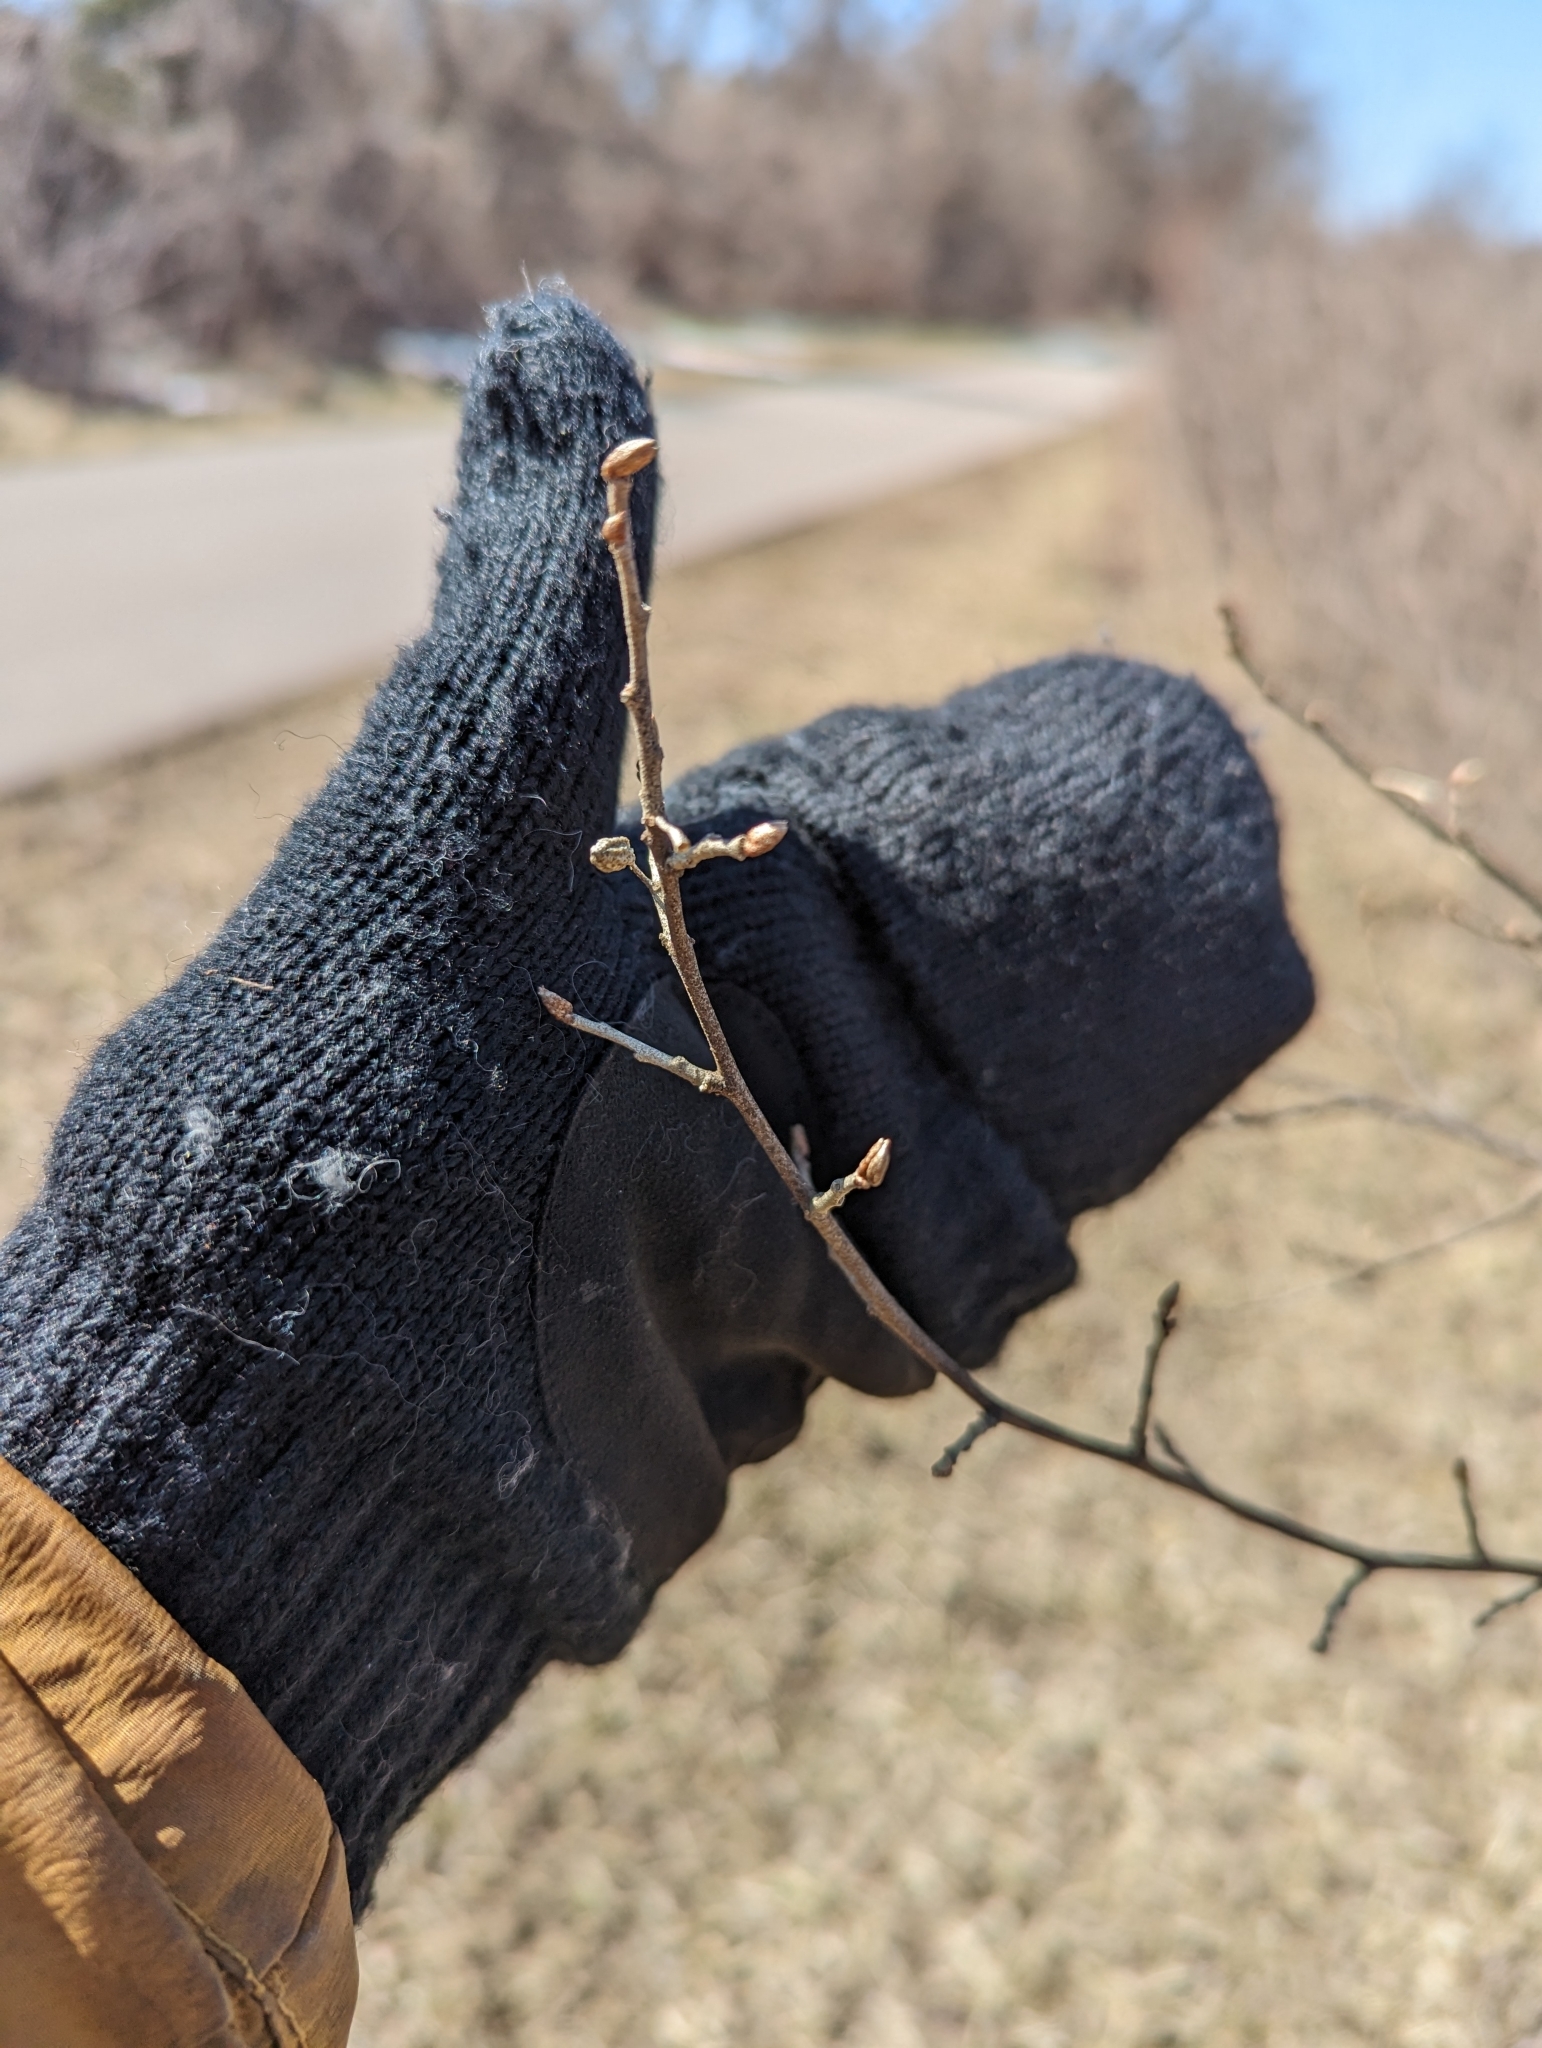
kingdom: Plantae
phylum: Tracheophyta
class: Magnoliopsida
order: Rosales
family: Elaeagnaceae
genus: Elaeagnus
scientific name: Elaeagnus umbellata
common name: Autumn olive
